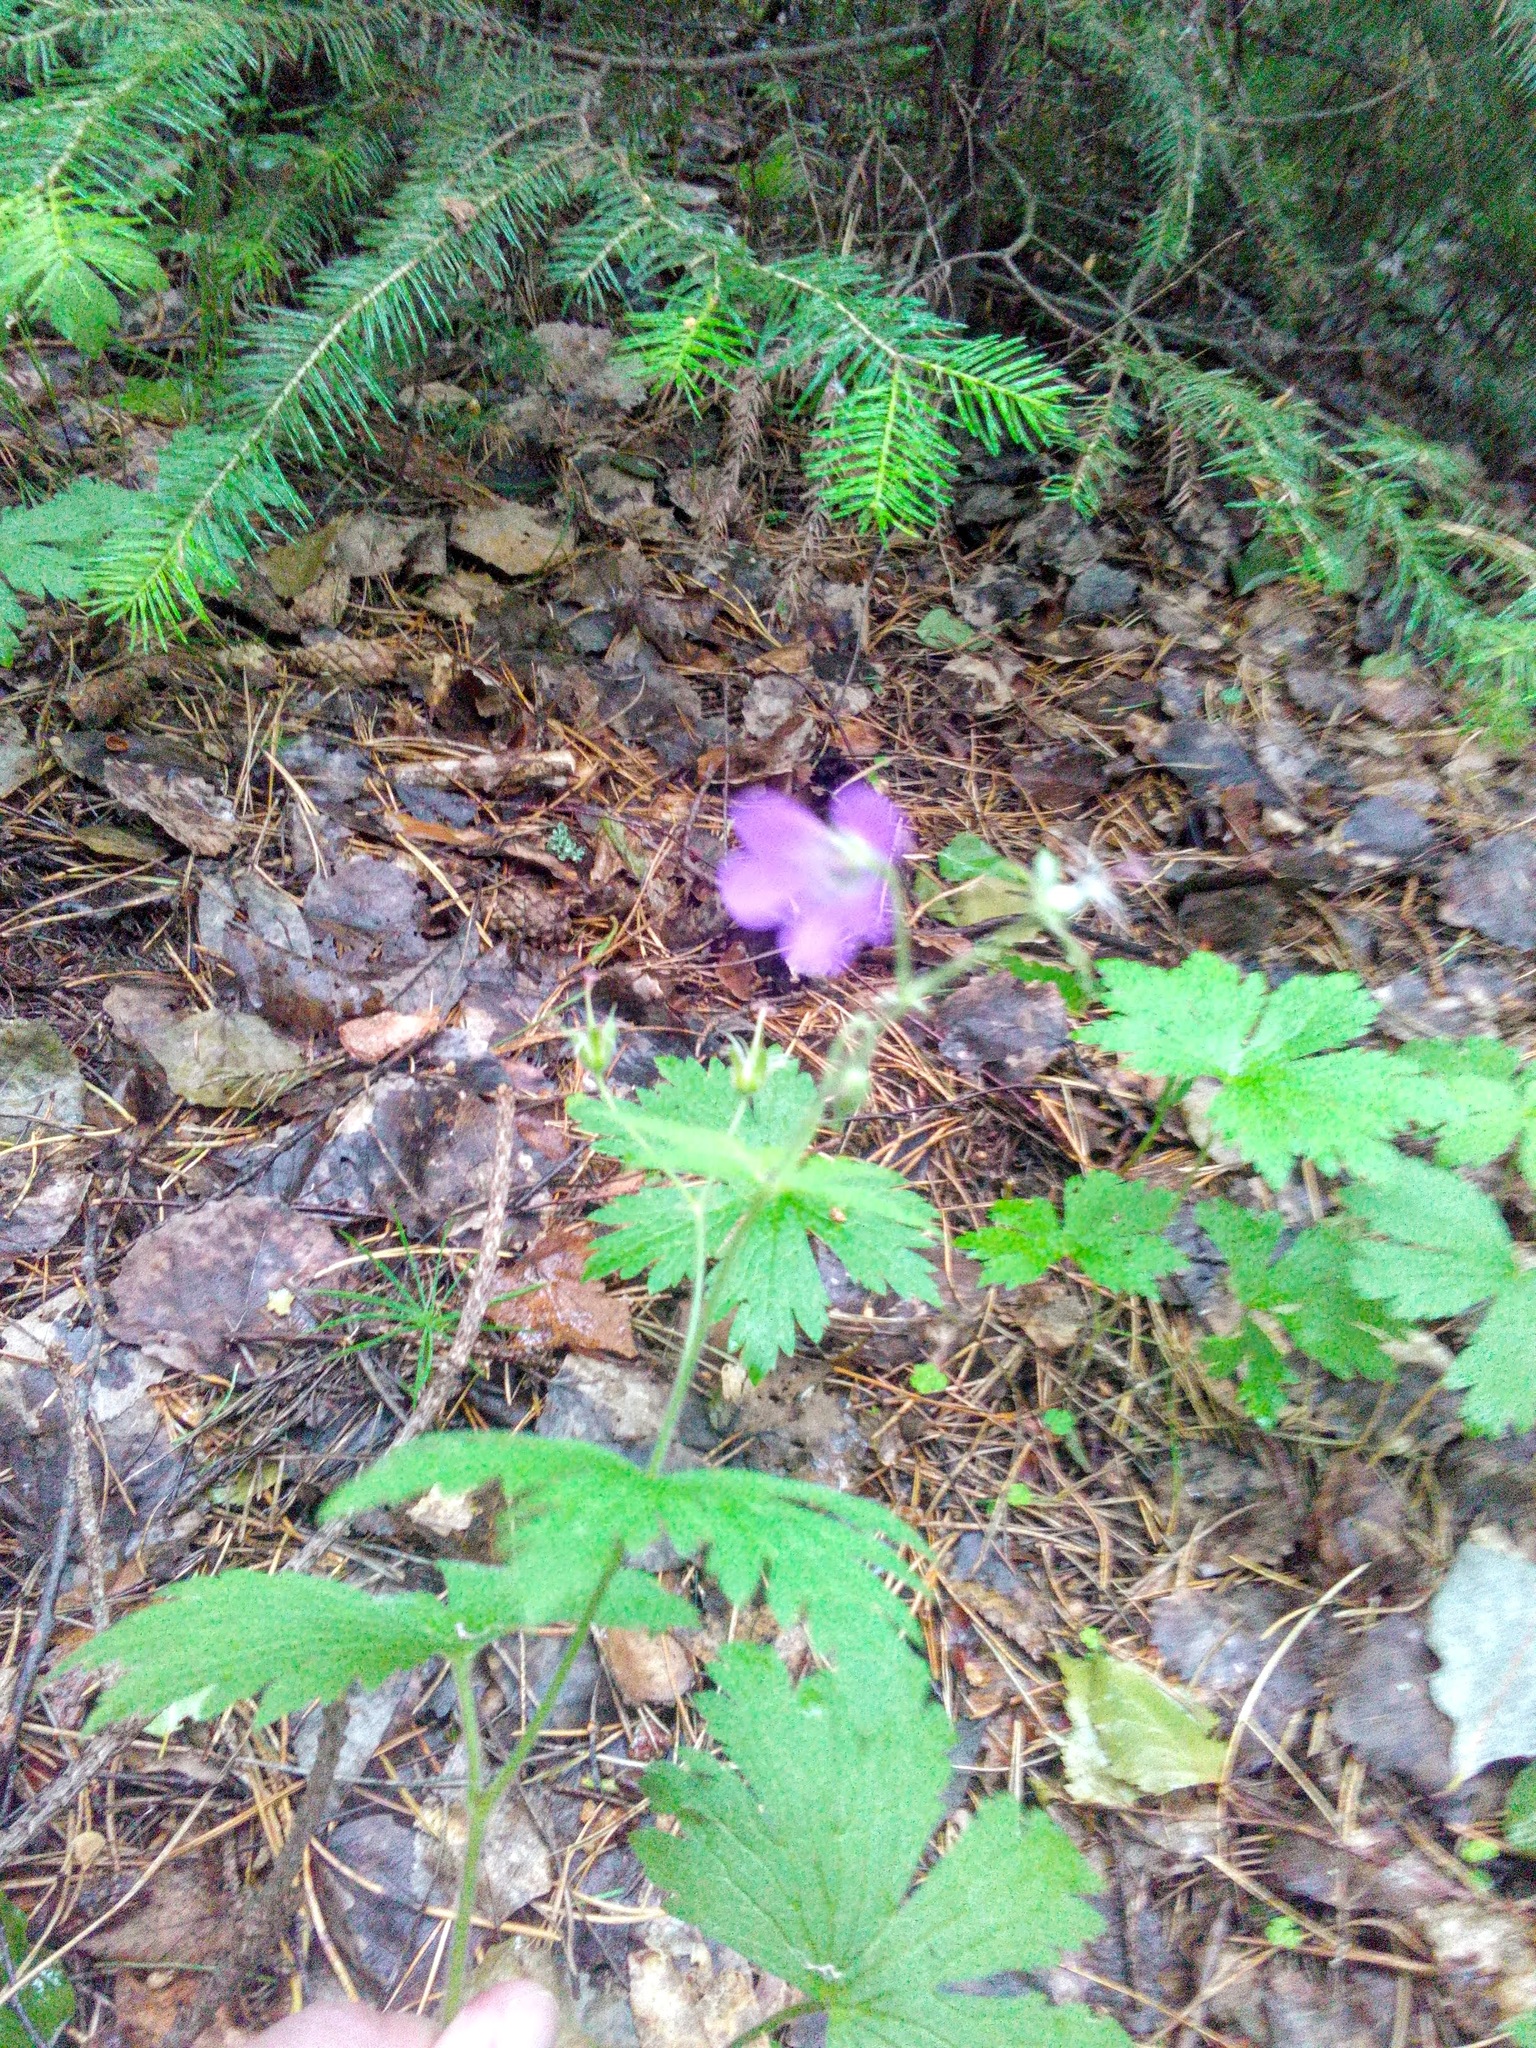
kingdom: Plantae
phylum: Tracheophyta
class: Magnoliopsida
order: Geraniales
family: Geraniaceae
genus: Geranium
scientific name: Geranium sylvaticum
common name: Wood crane's-bill
